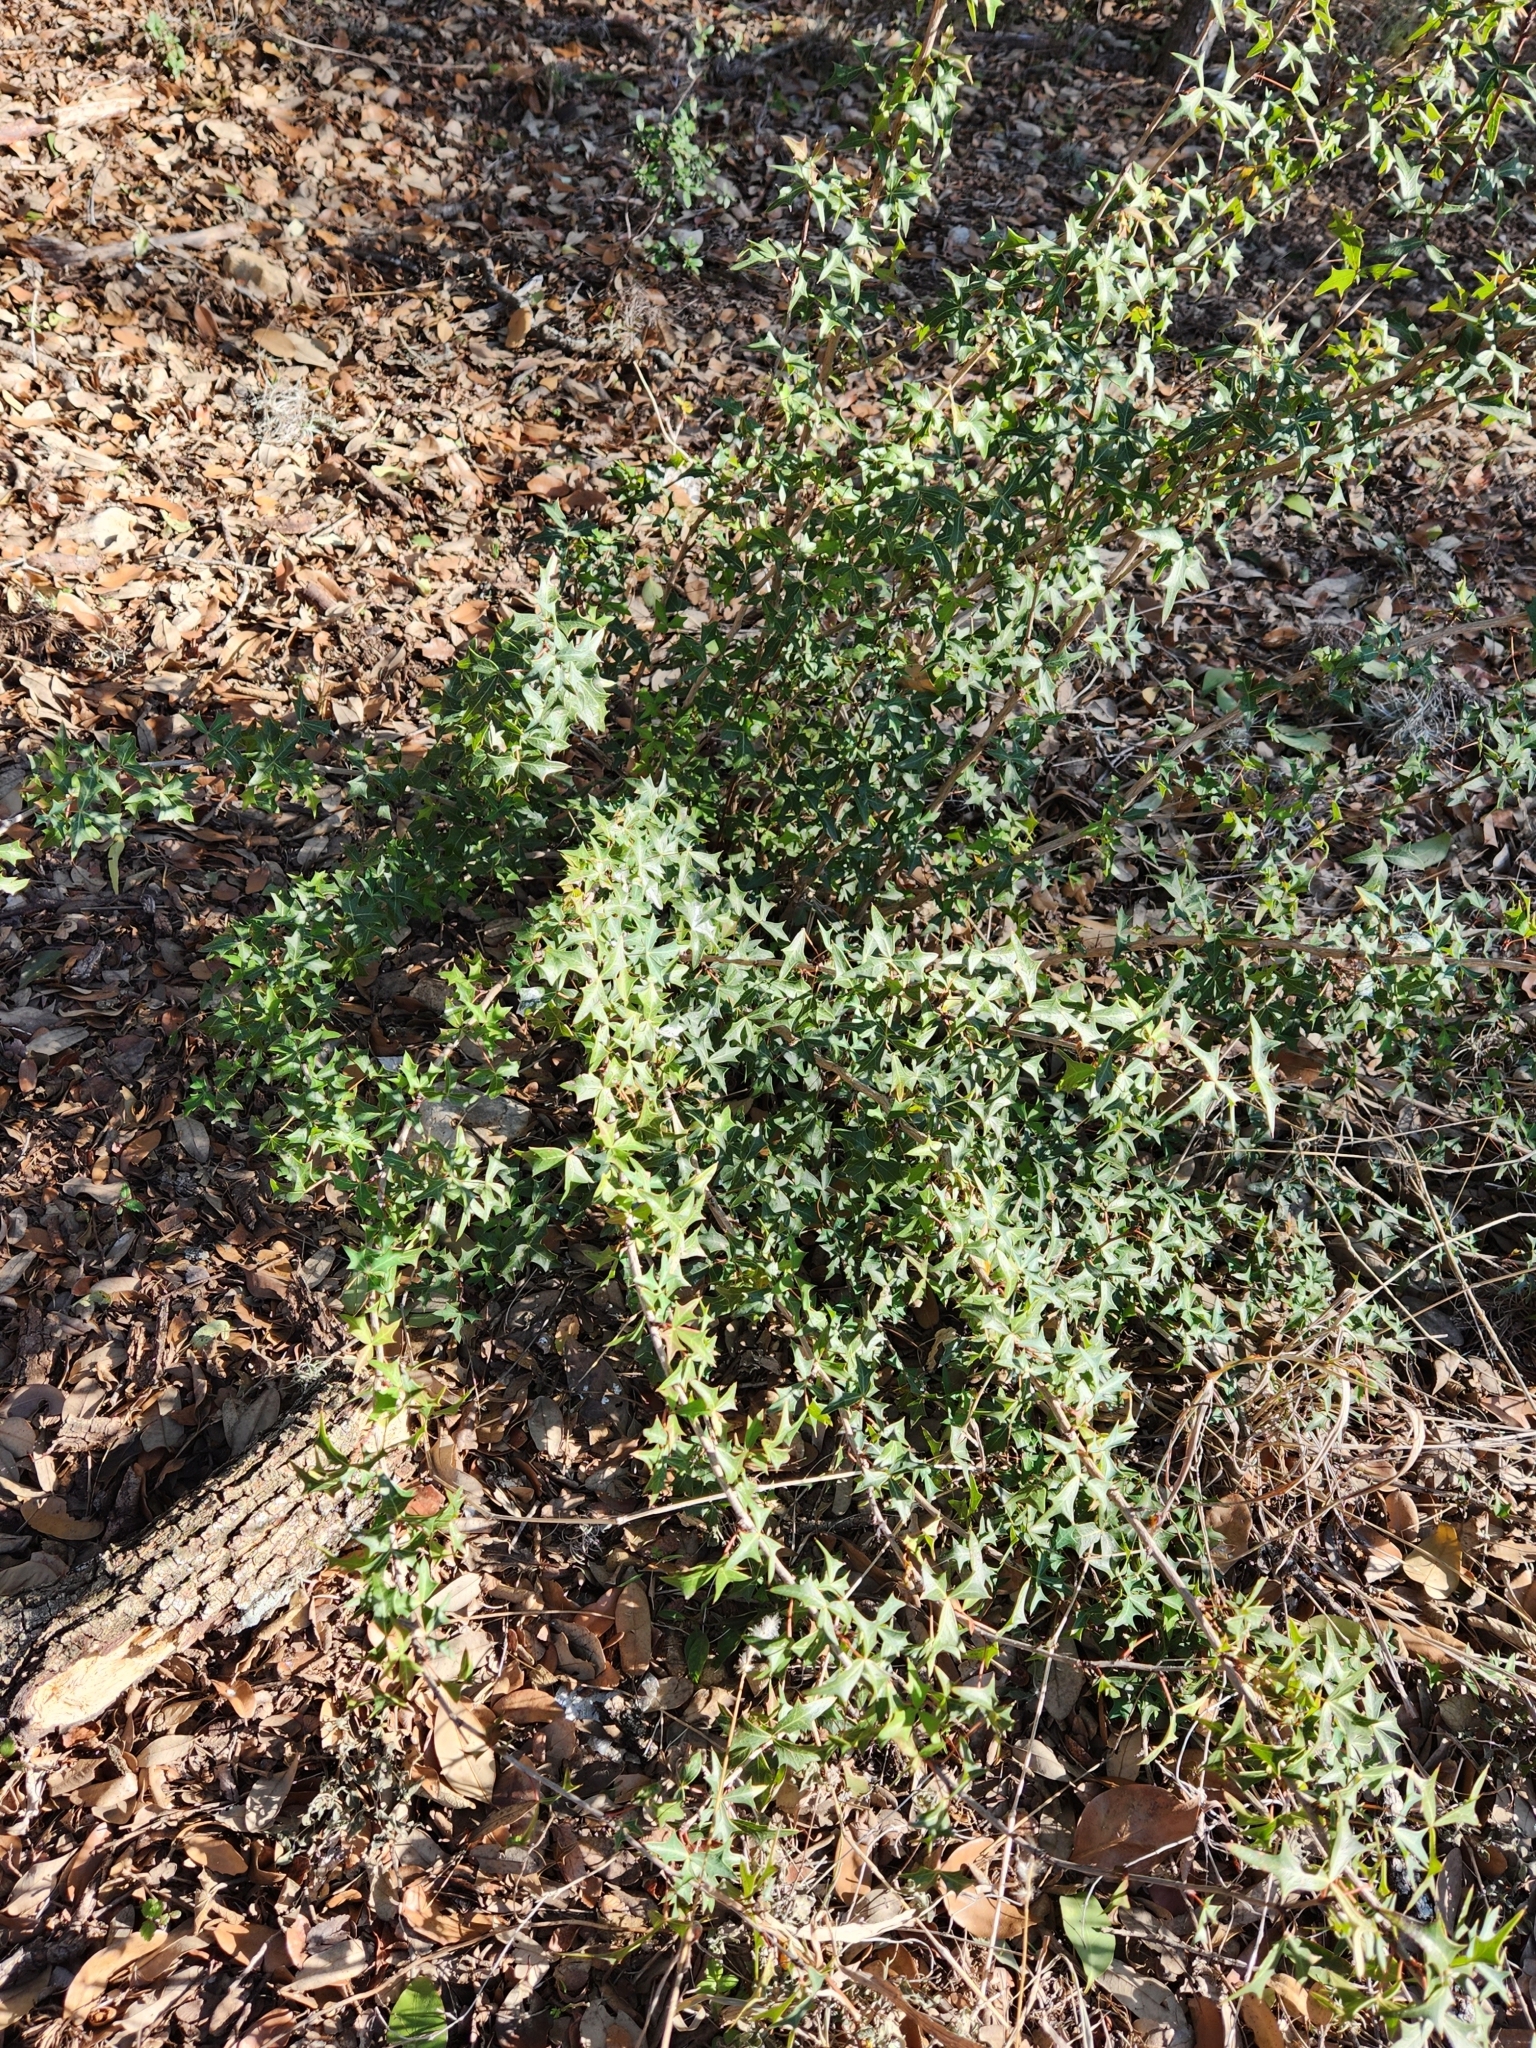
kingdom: Plantae
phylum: Tracheophyta
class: Magnoliopsida
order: Ranunculales
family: Berberidaceae
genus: Alloberberis
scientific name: Alloberberis trifoliolata
